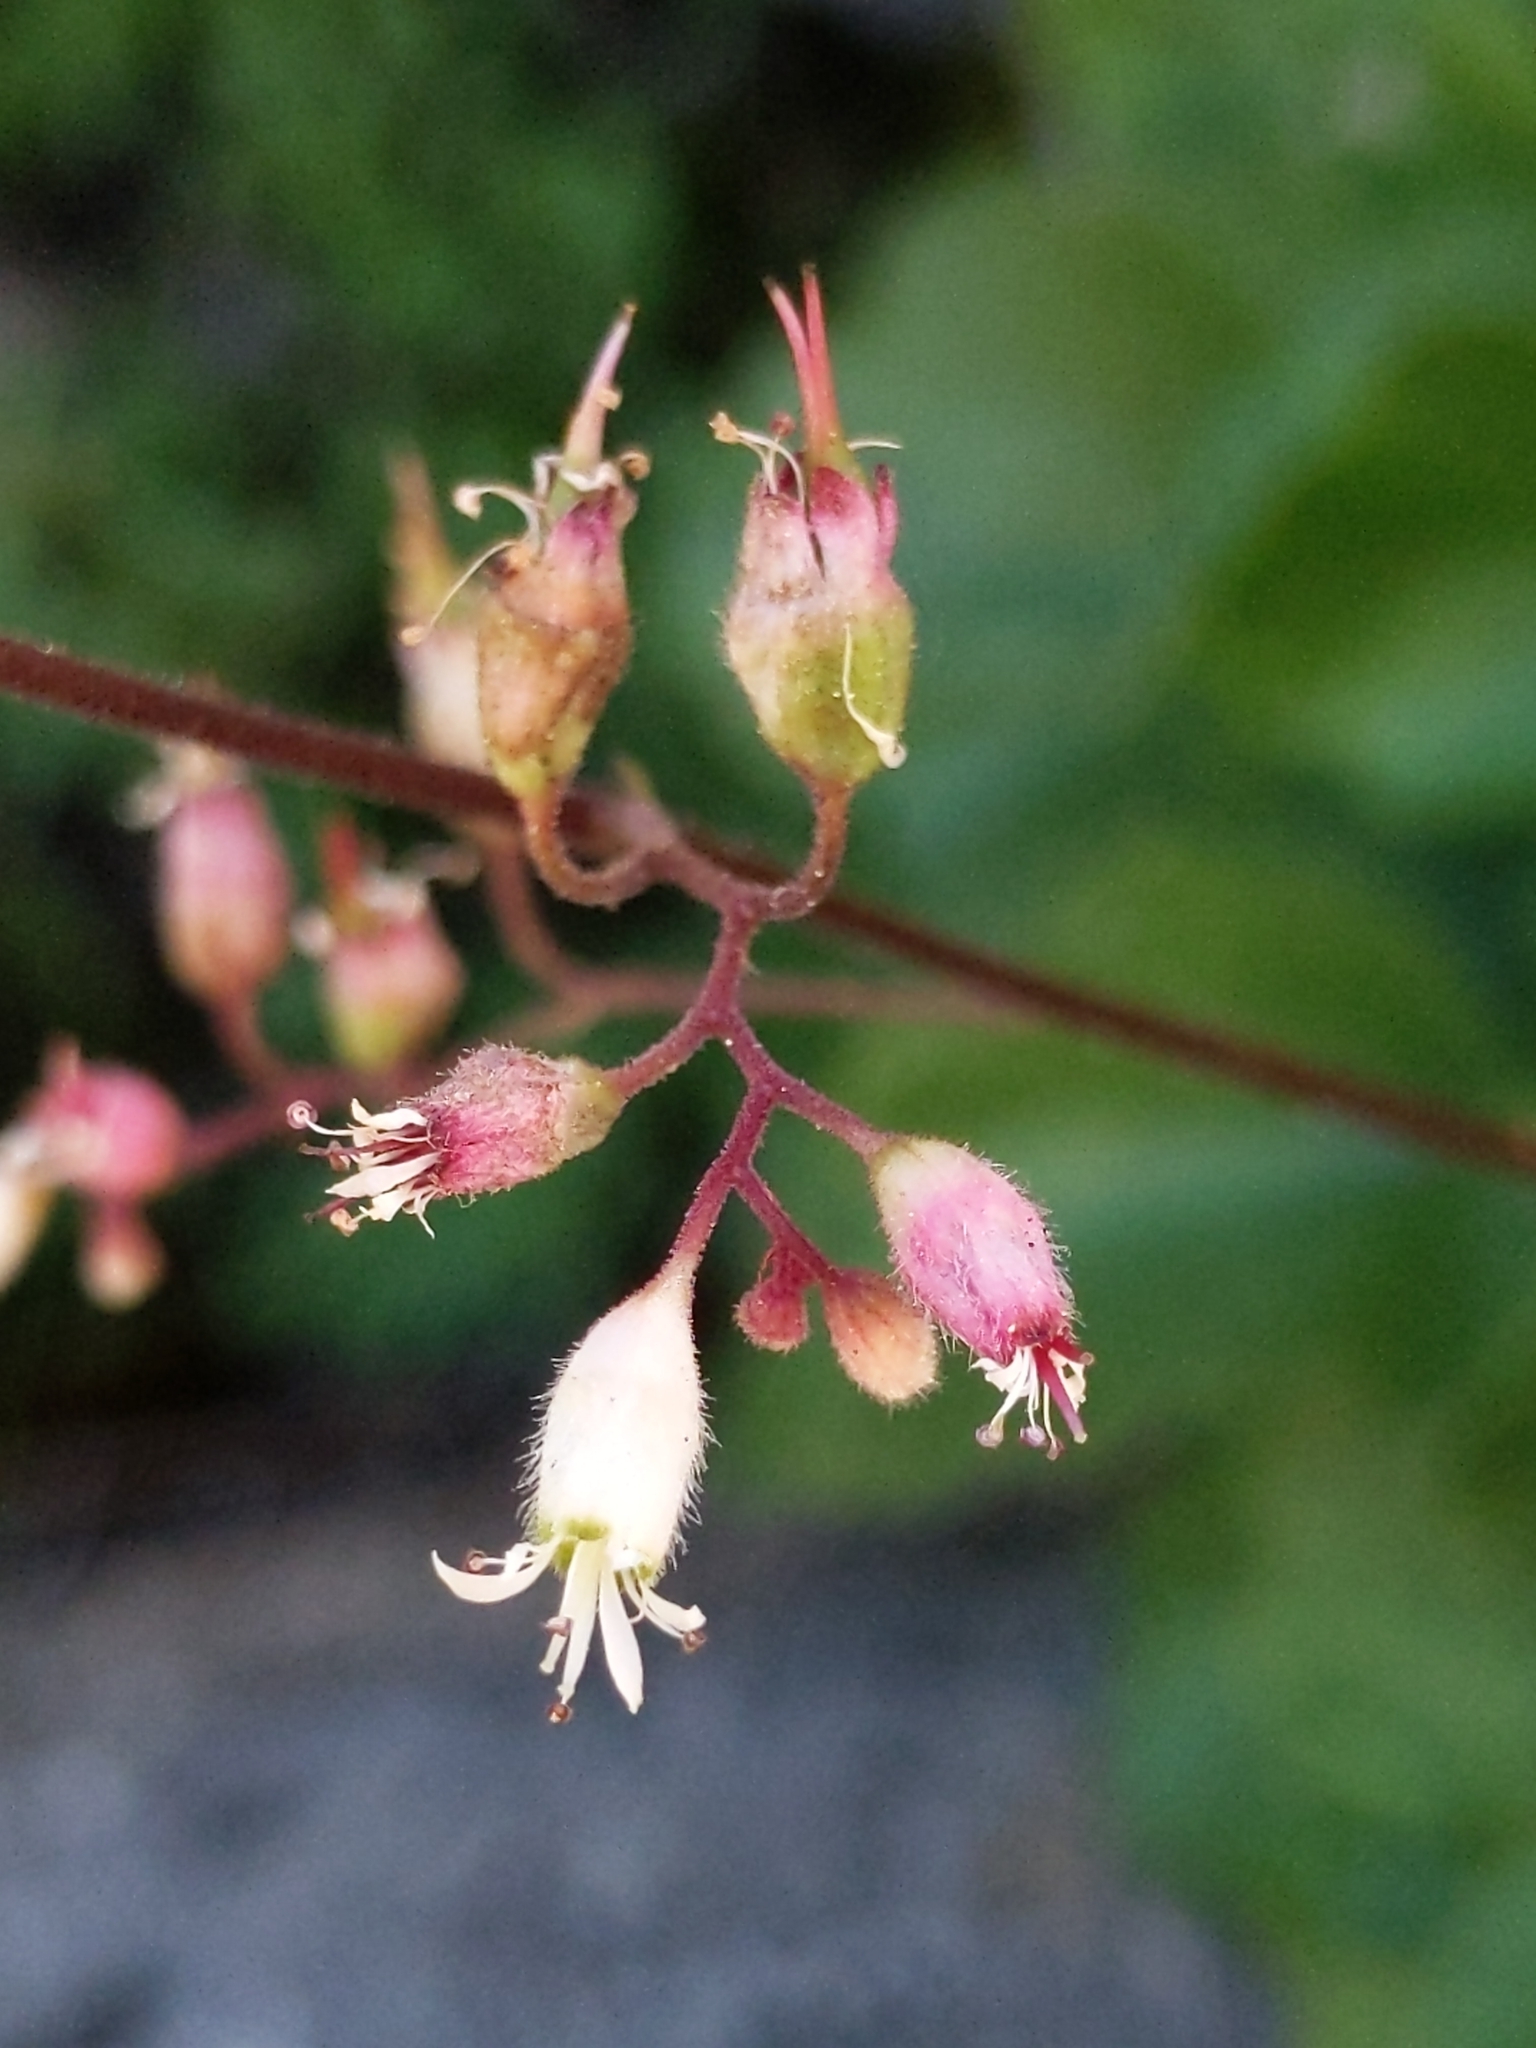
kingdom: Plantae
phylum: Tracheophyta
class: Magnoliopsida
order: Saxifragales
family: Saxifragaceae
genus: Heuchera
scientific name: Heuchera rubescens
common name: Jack-o'the-rocks
